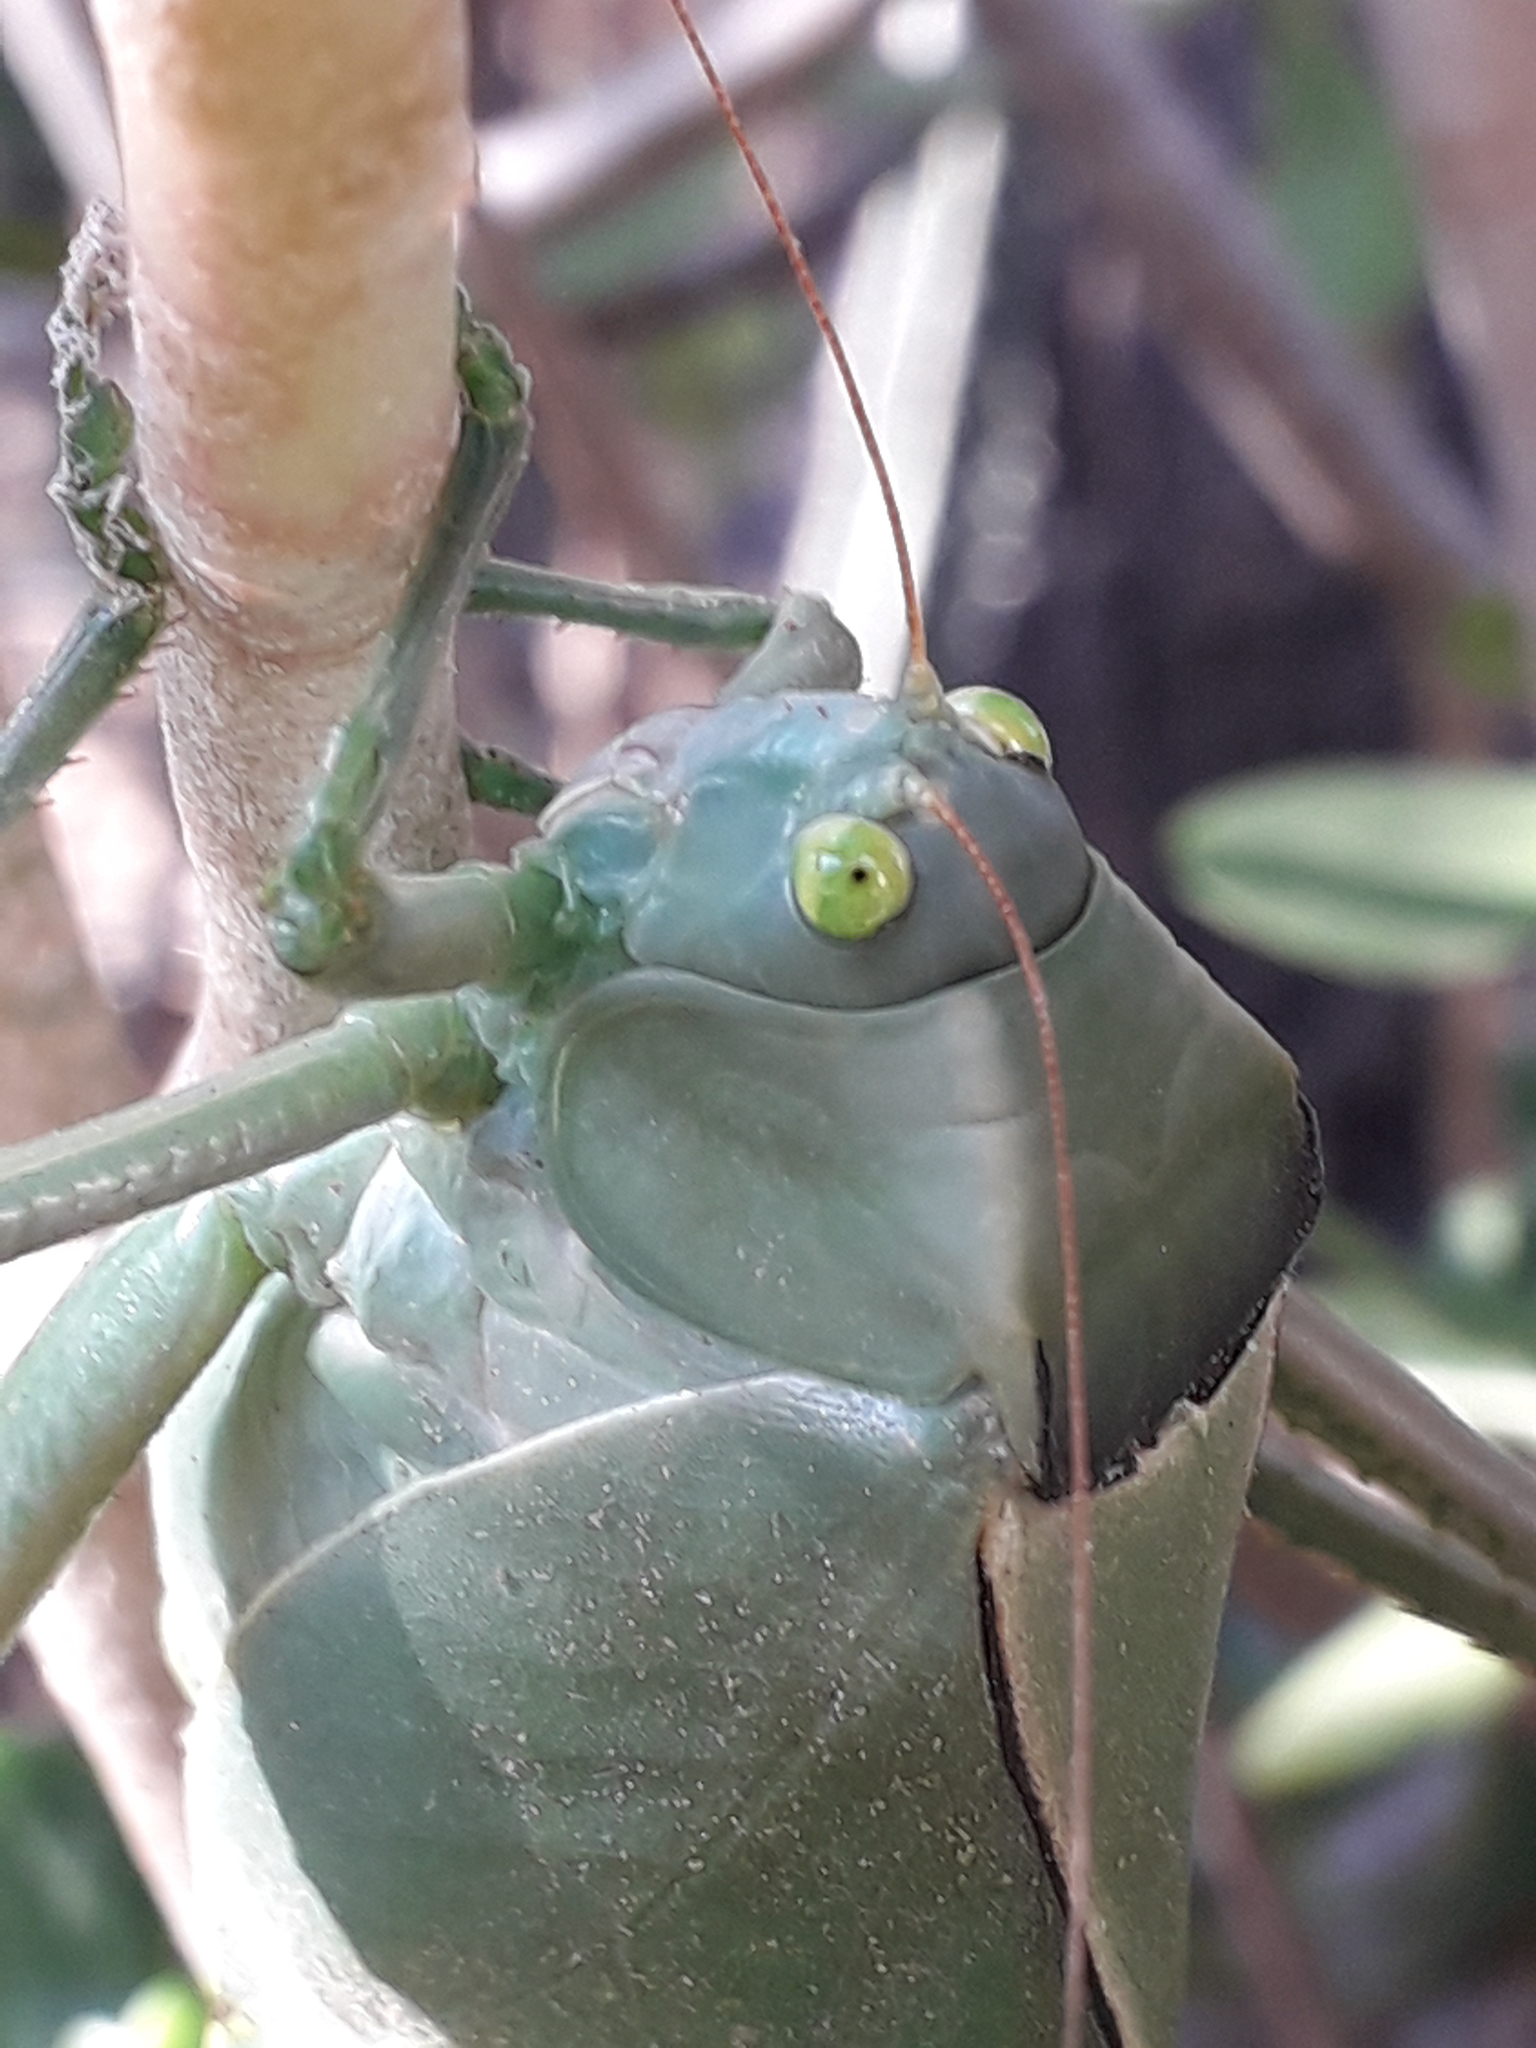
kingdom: Animalia
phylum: Arthropoda
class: Insecta
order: Orthoptera
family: Tettigoniidae
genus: Stilpnochlora
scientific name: Stilpnochlora azteca
